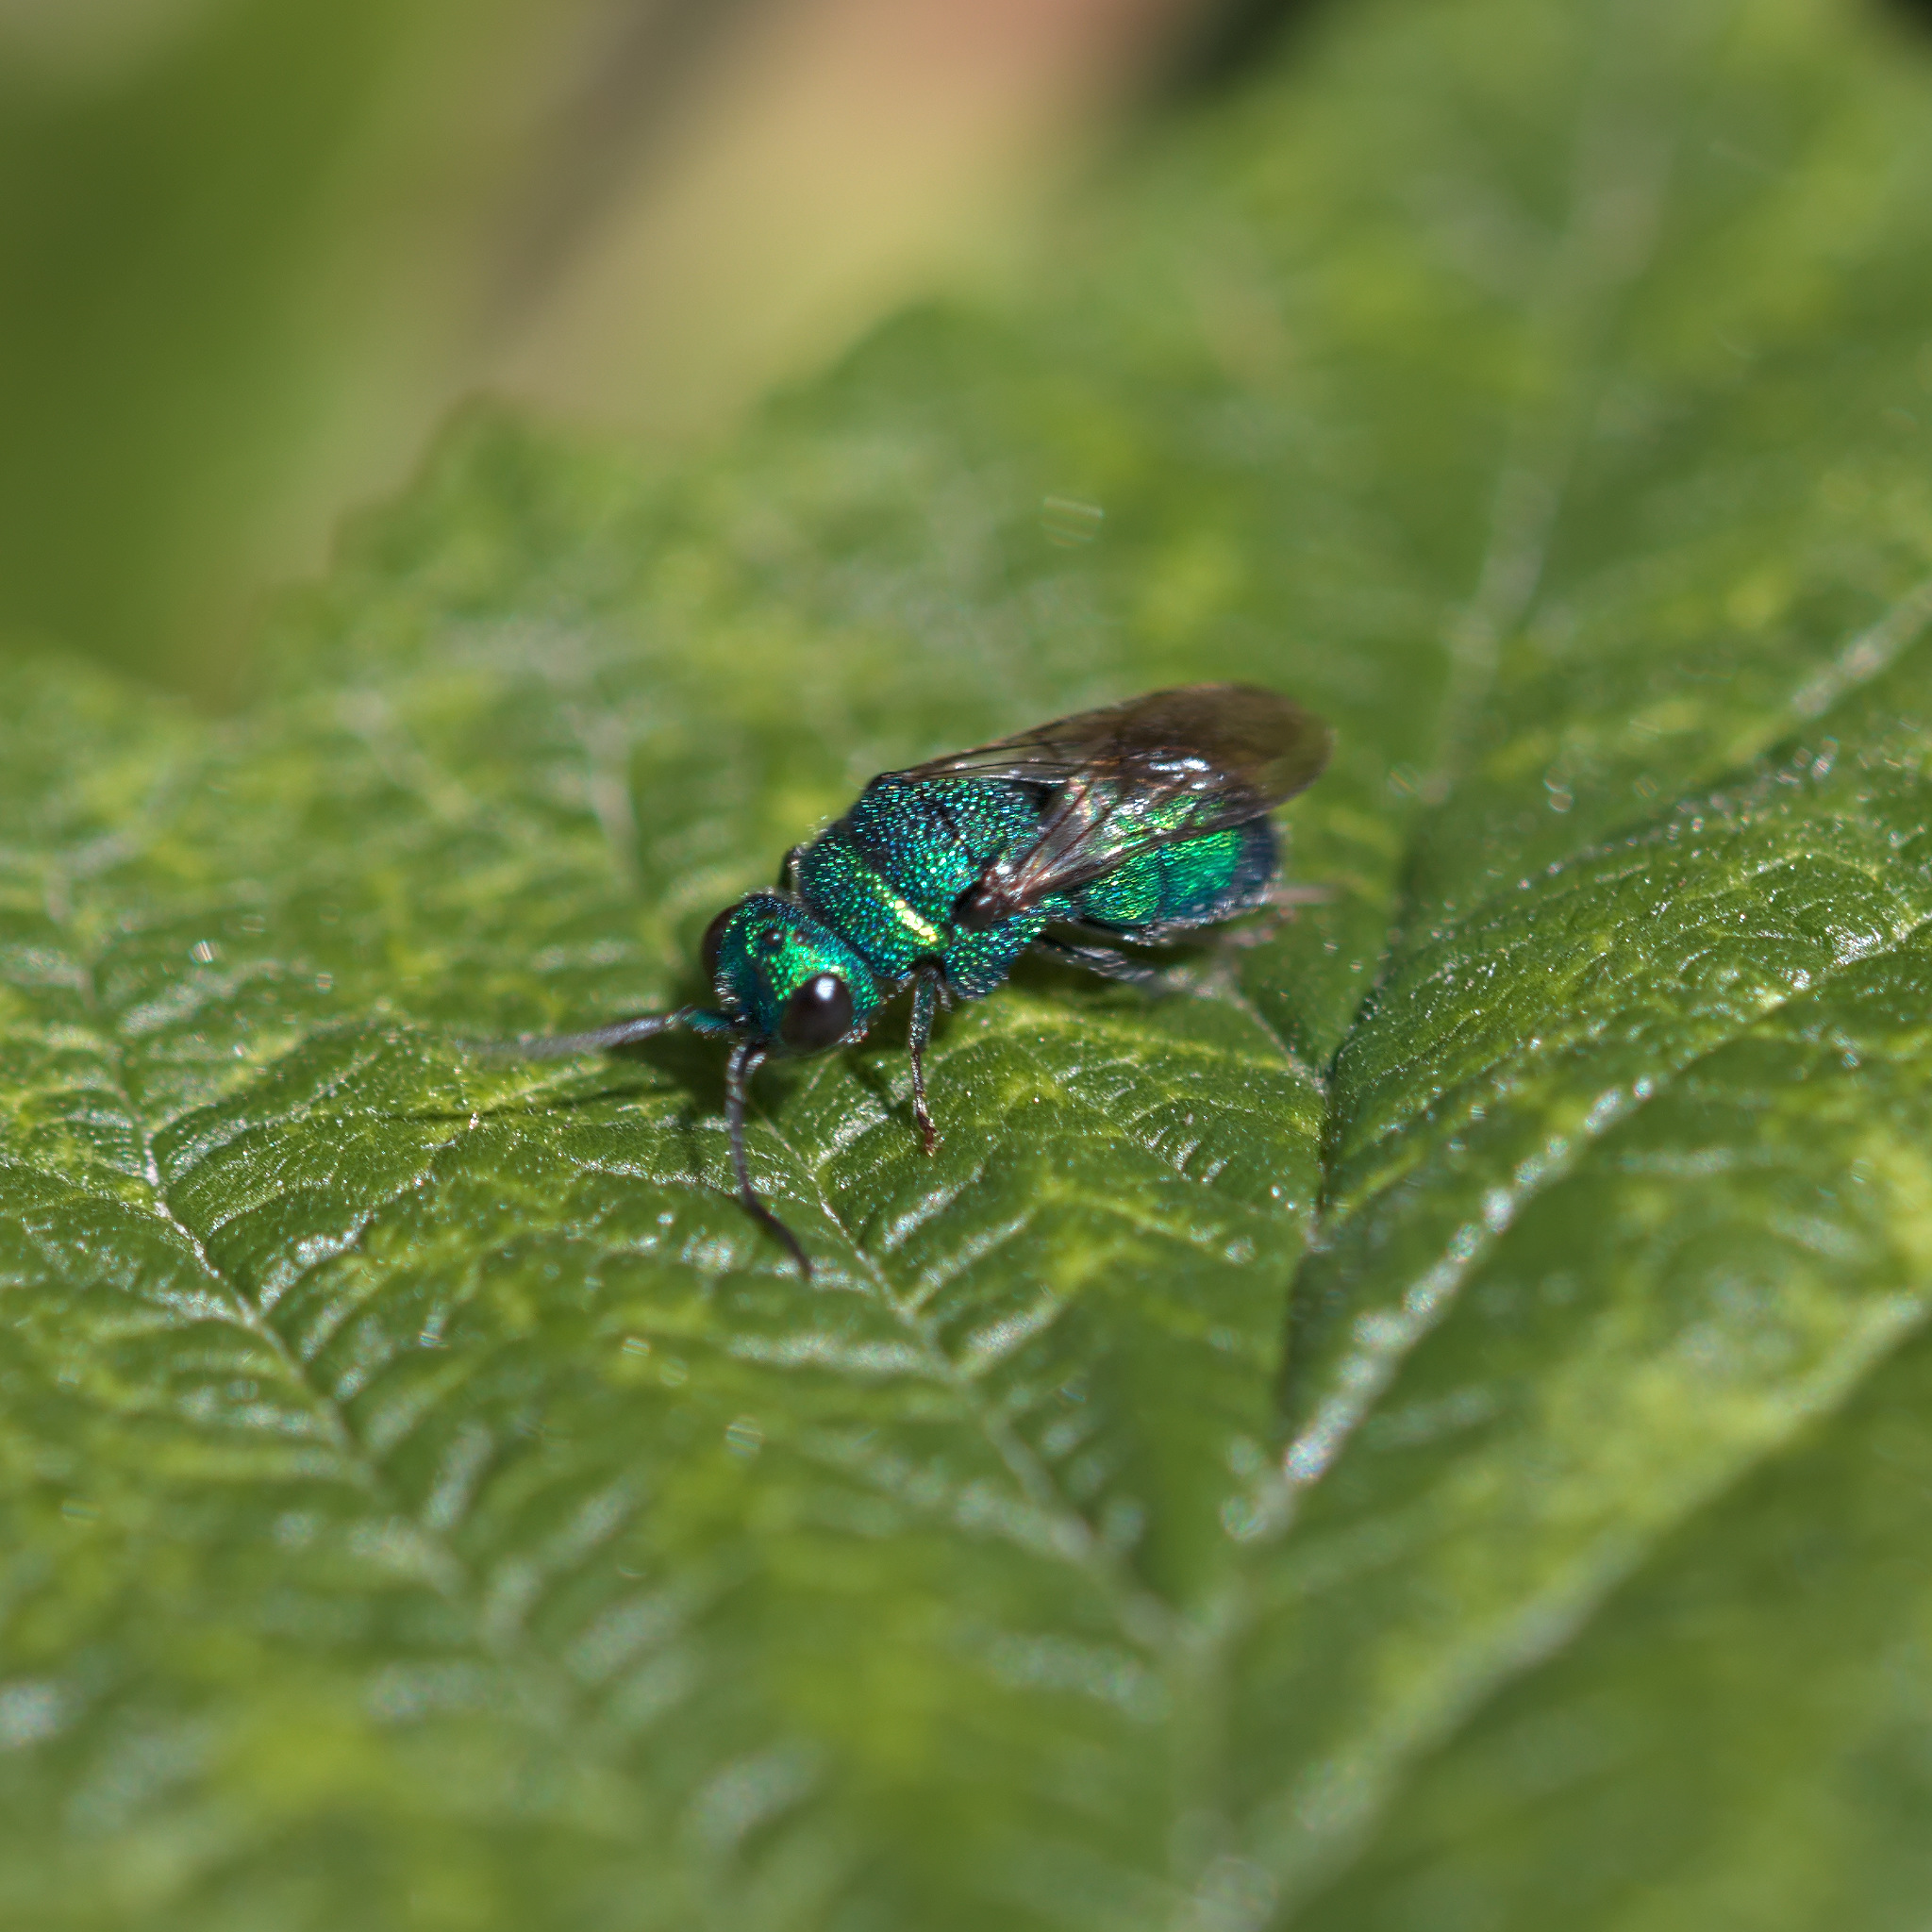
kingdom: Animalia
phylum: Arthropoda
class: Insecta
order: Hymenoptera
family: Chrysididae
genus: Holopyga
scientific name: Holopyga
